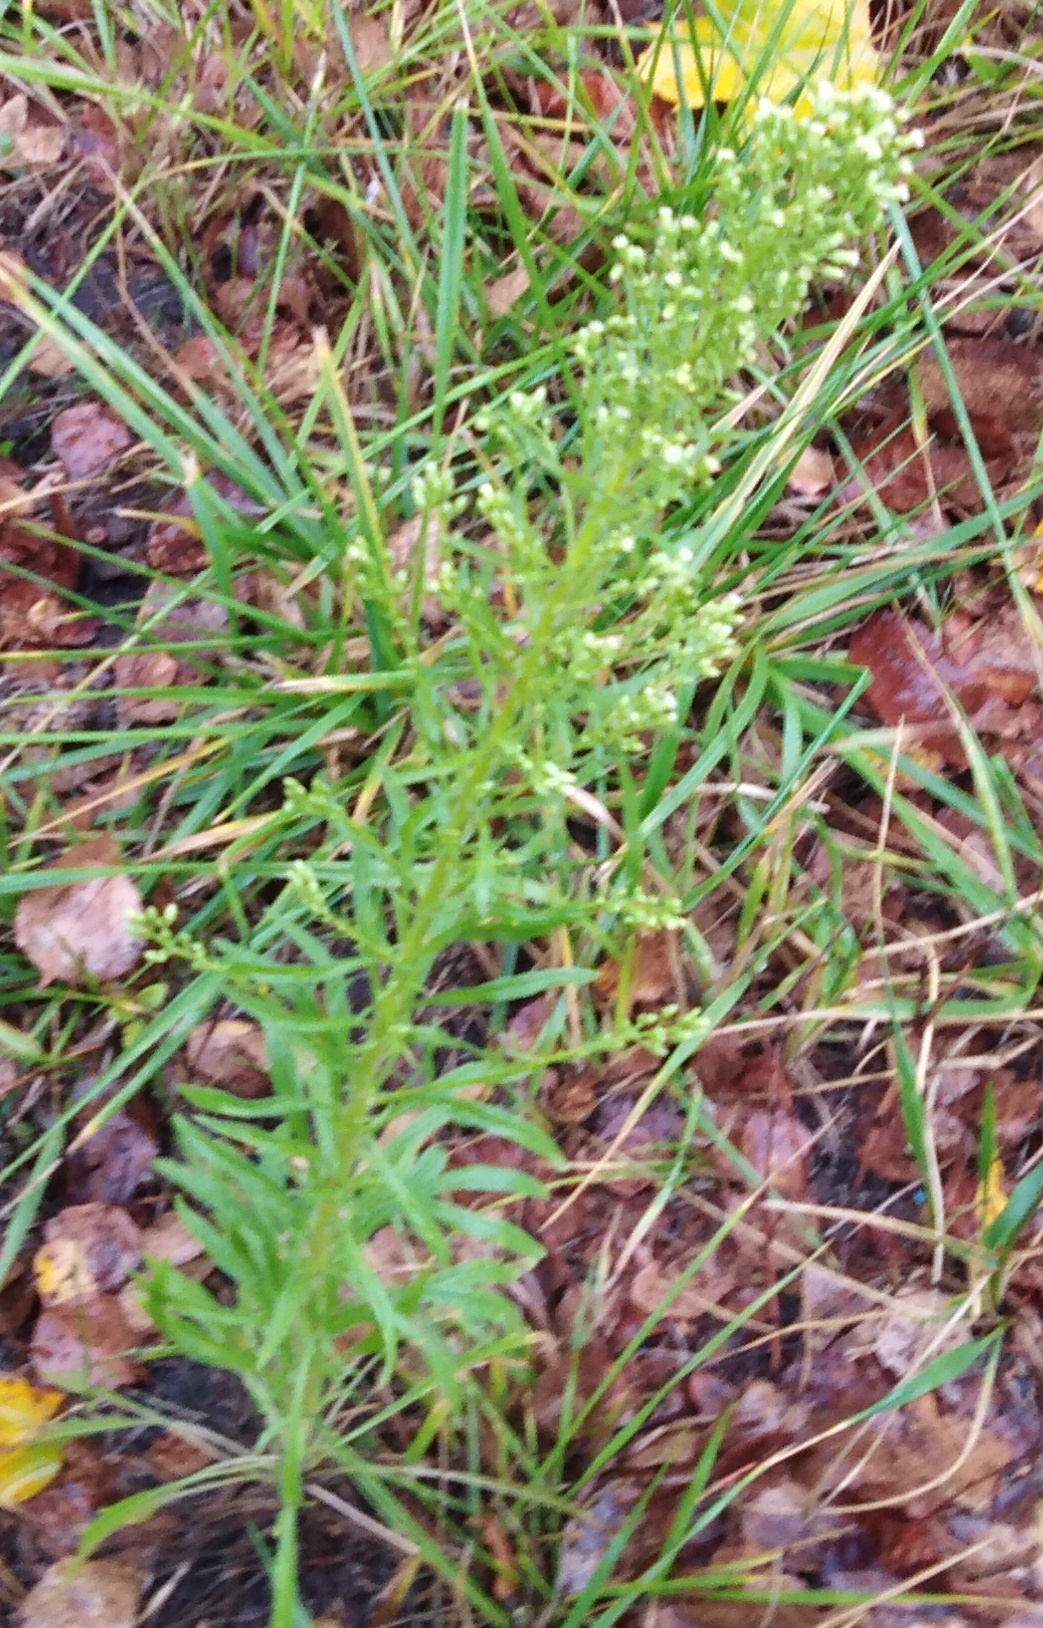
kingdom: Plantae
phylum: Tracheophyta
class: Magnoliopsida
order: Asterales
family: Asteraceae
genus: Erigeron
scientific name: Erigeron canadensis
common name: Canadian fleabane
